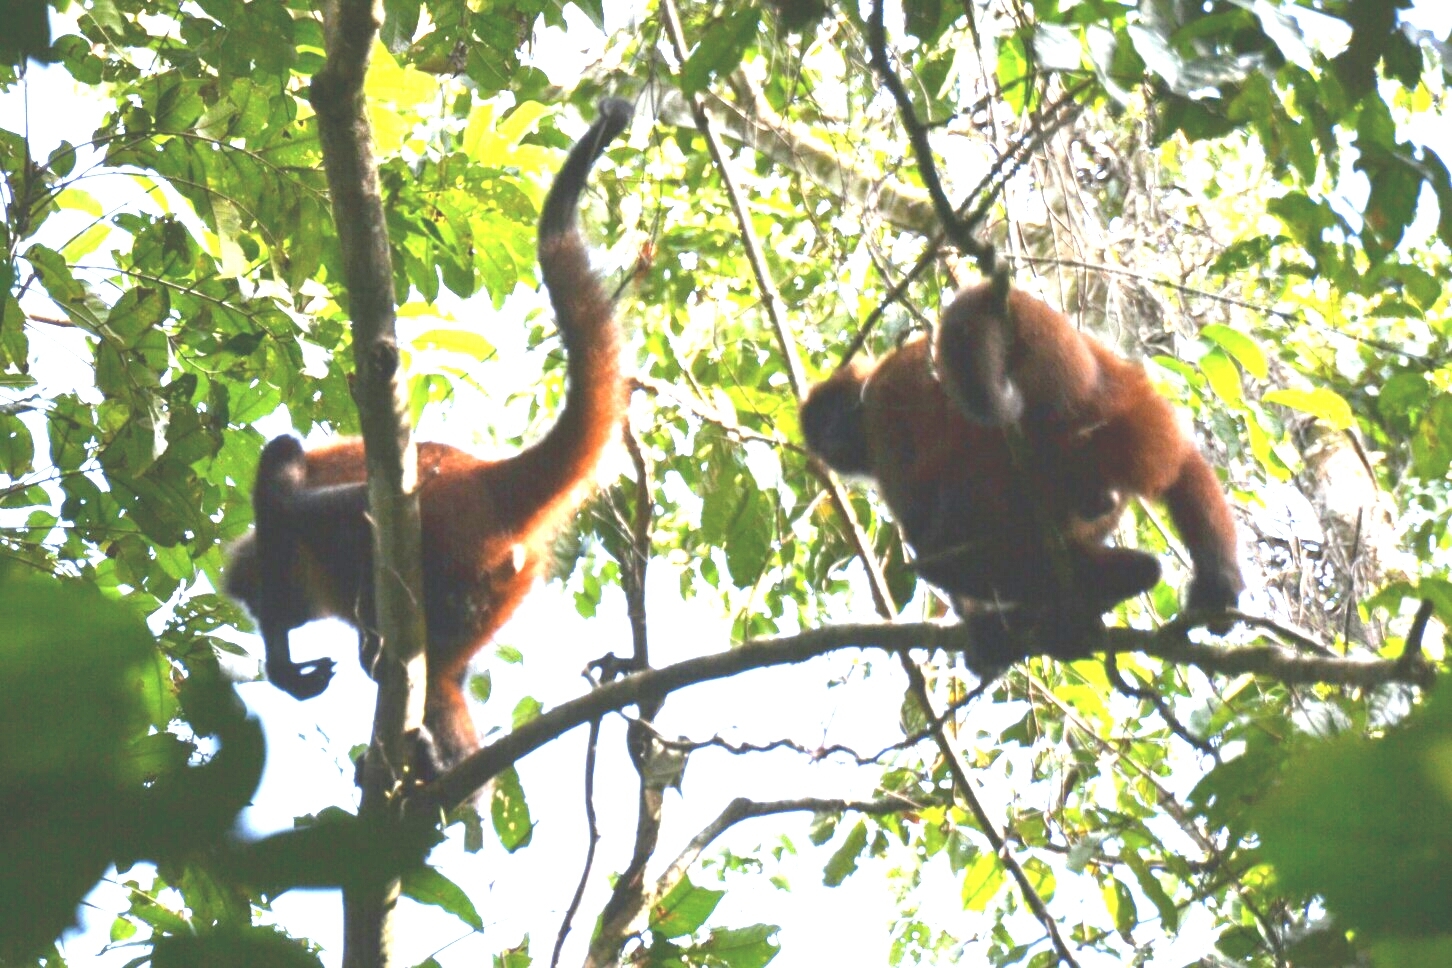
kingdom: Animalia
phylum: Chordata
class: Mammalia
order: Primates
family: Atelidae
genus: Ateles
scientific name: Ateles geoffroyi
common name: Black-handed spider monkey
